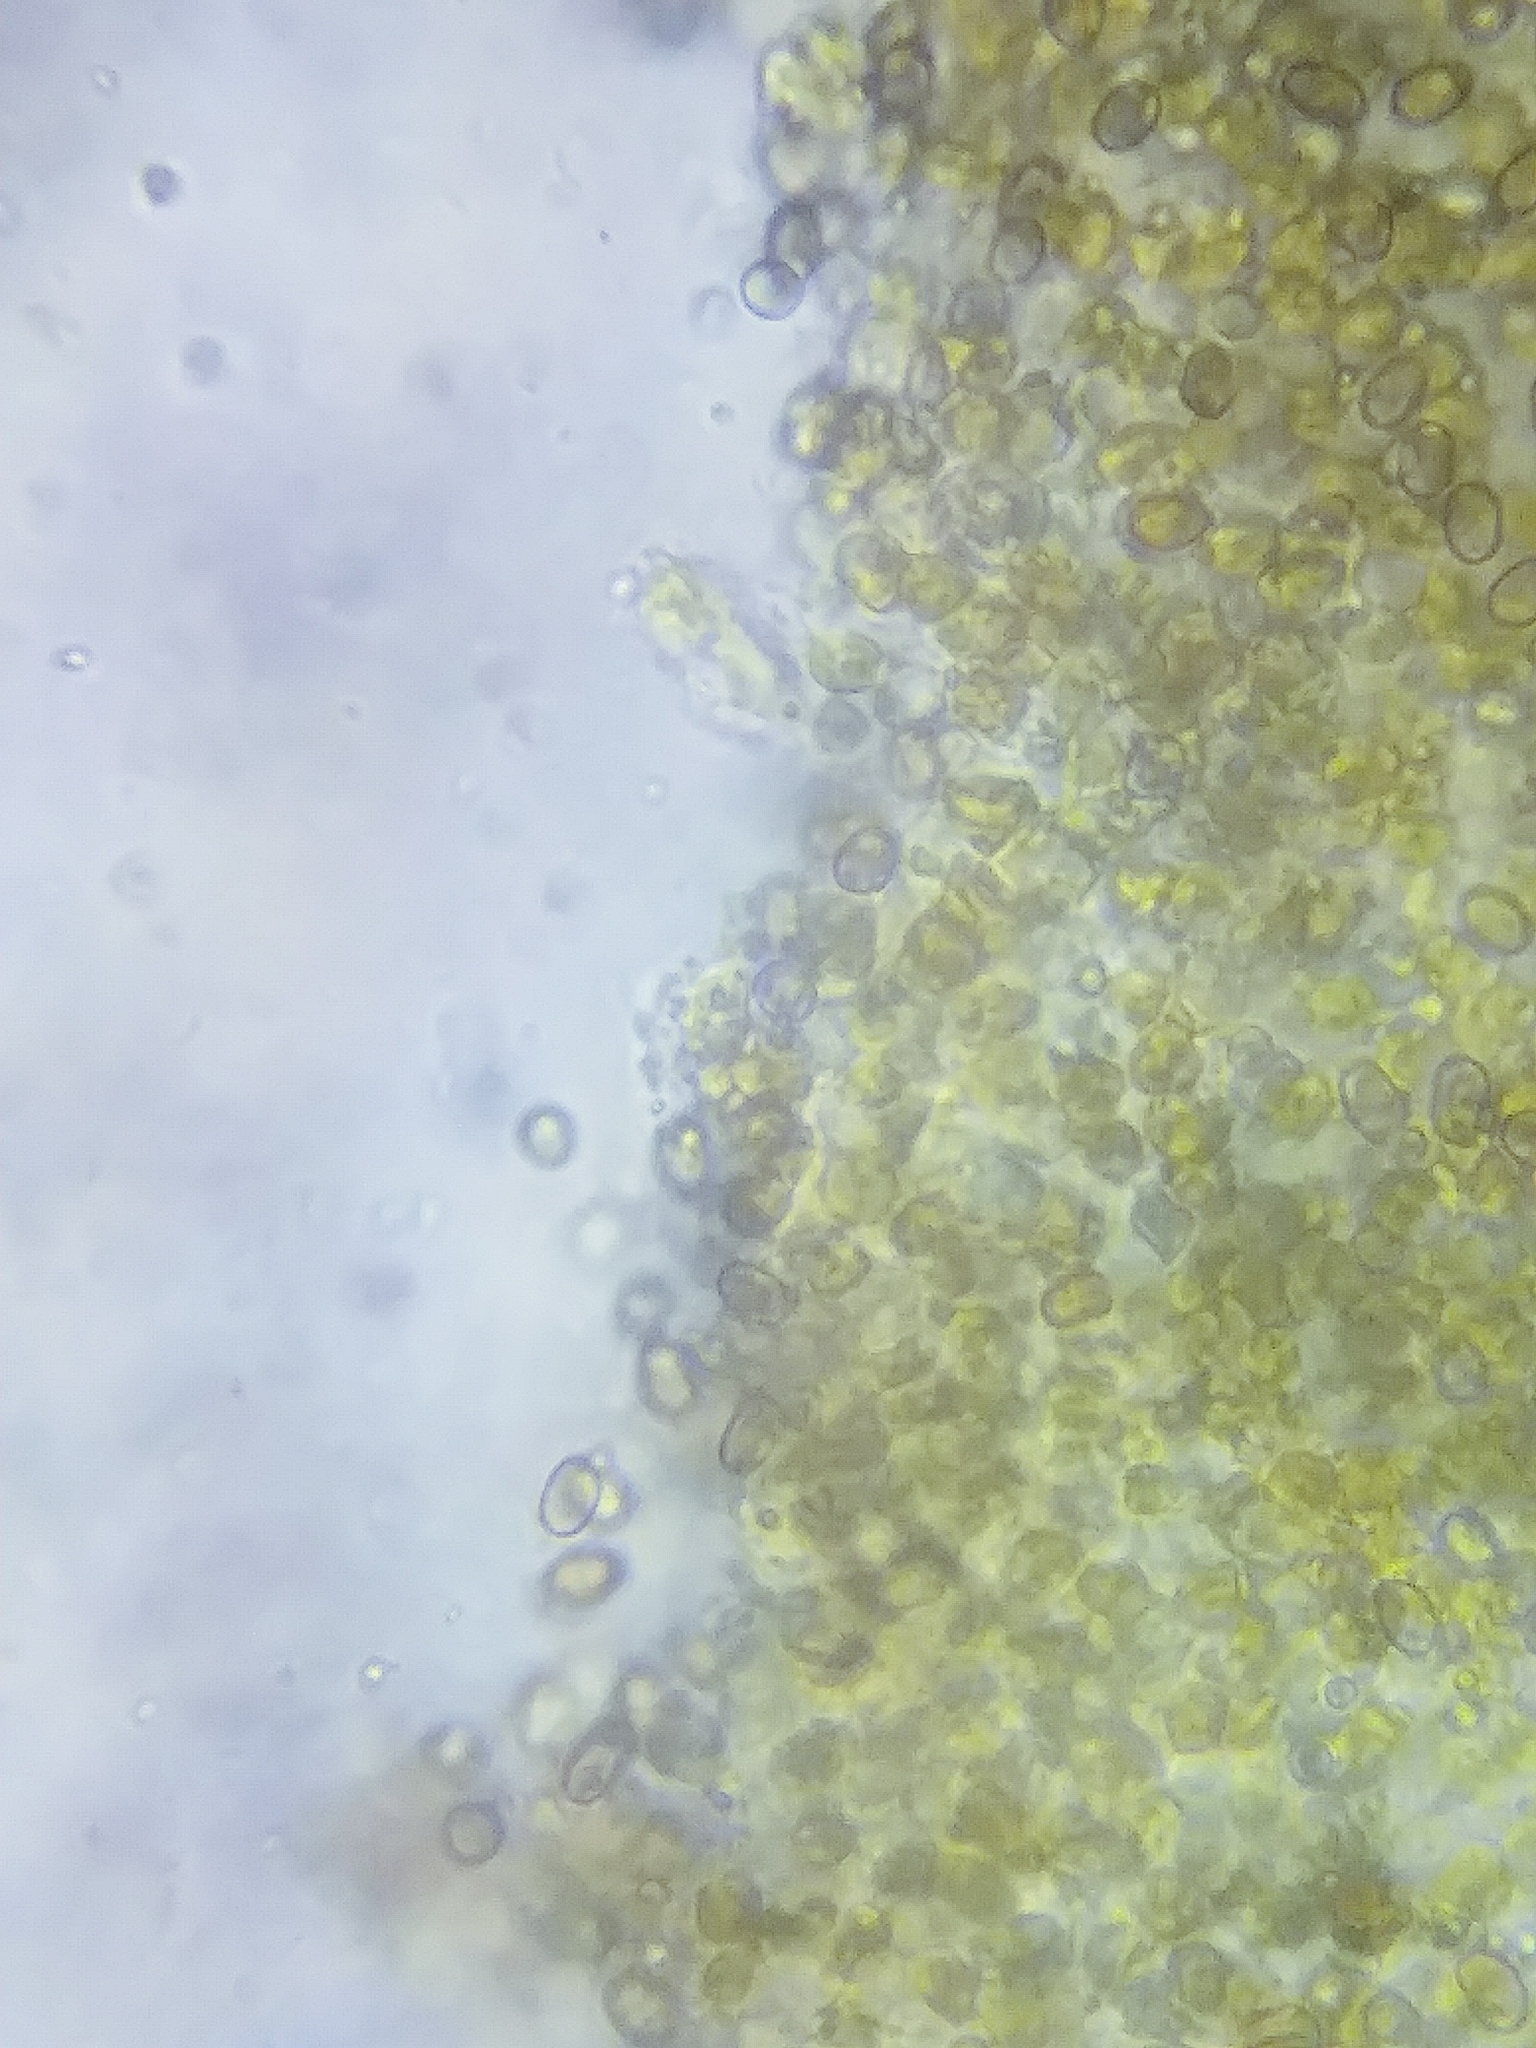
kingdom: Fungi
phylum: Basidiomycota
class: Agaricomycetes
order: Agaricales
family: Strophariaceae
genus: Pholiota
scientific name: Pholiota limonella
